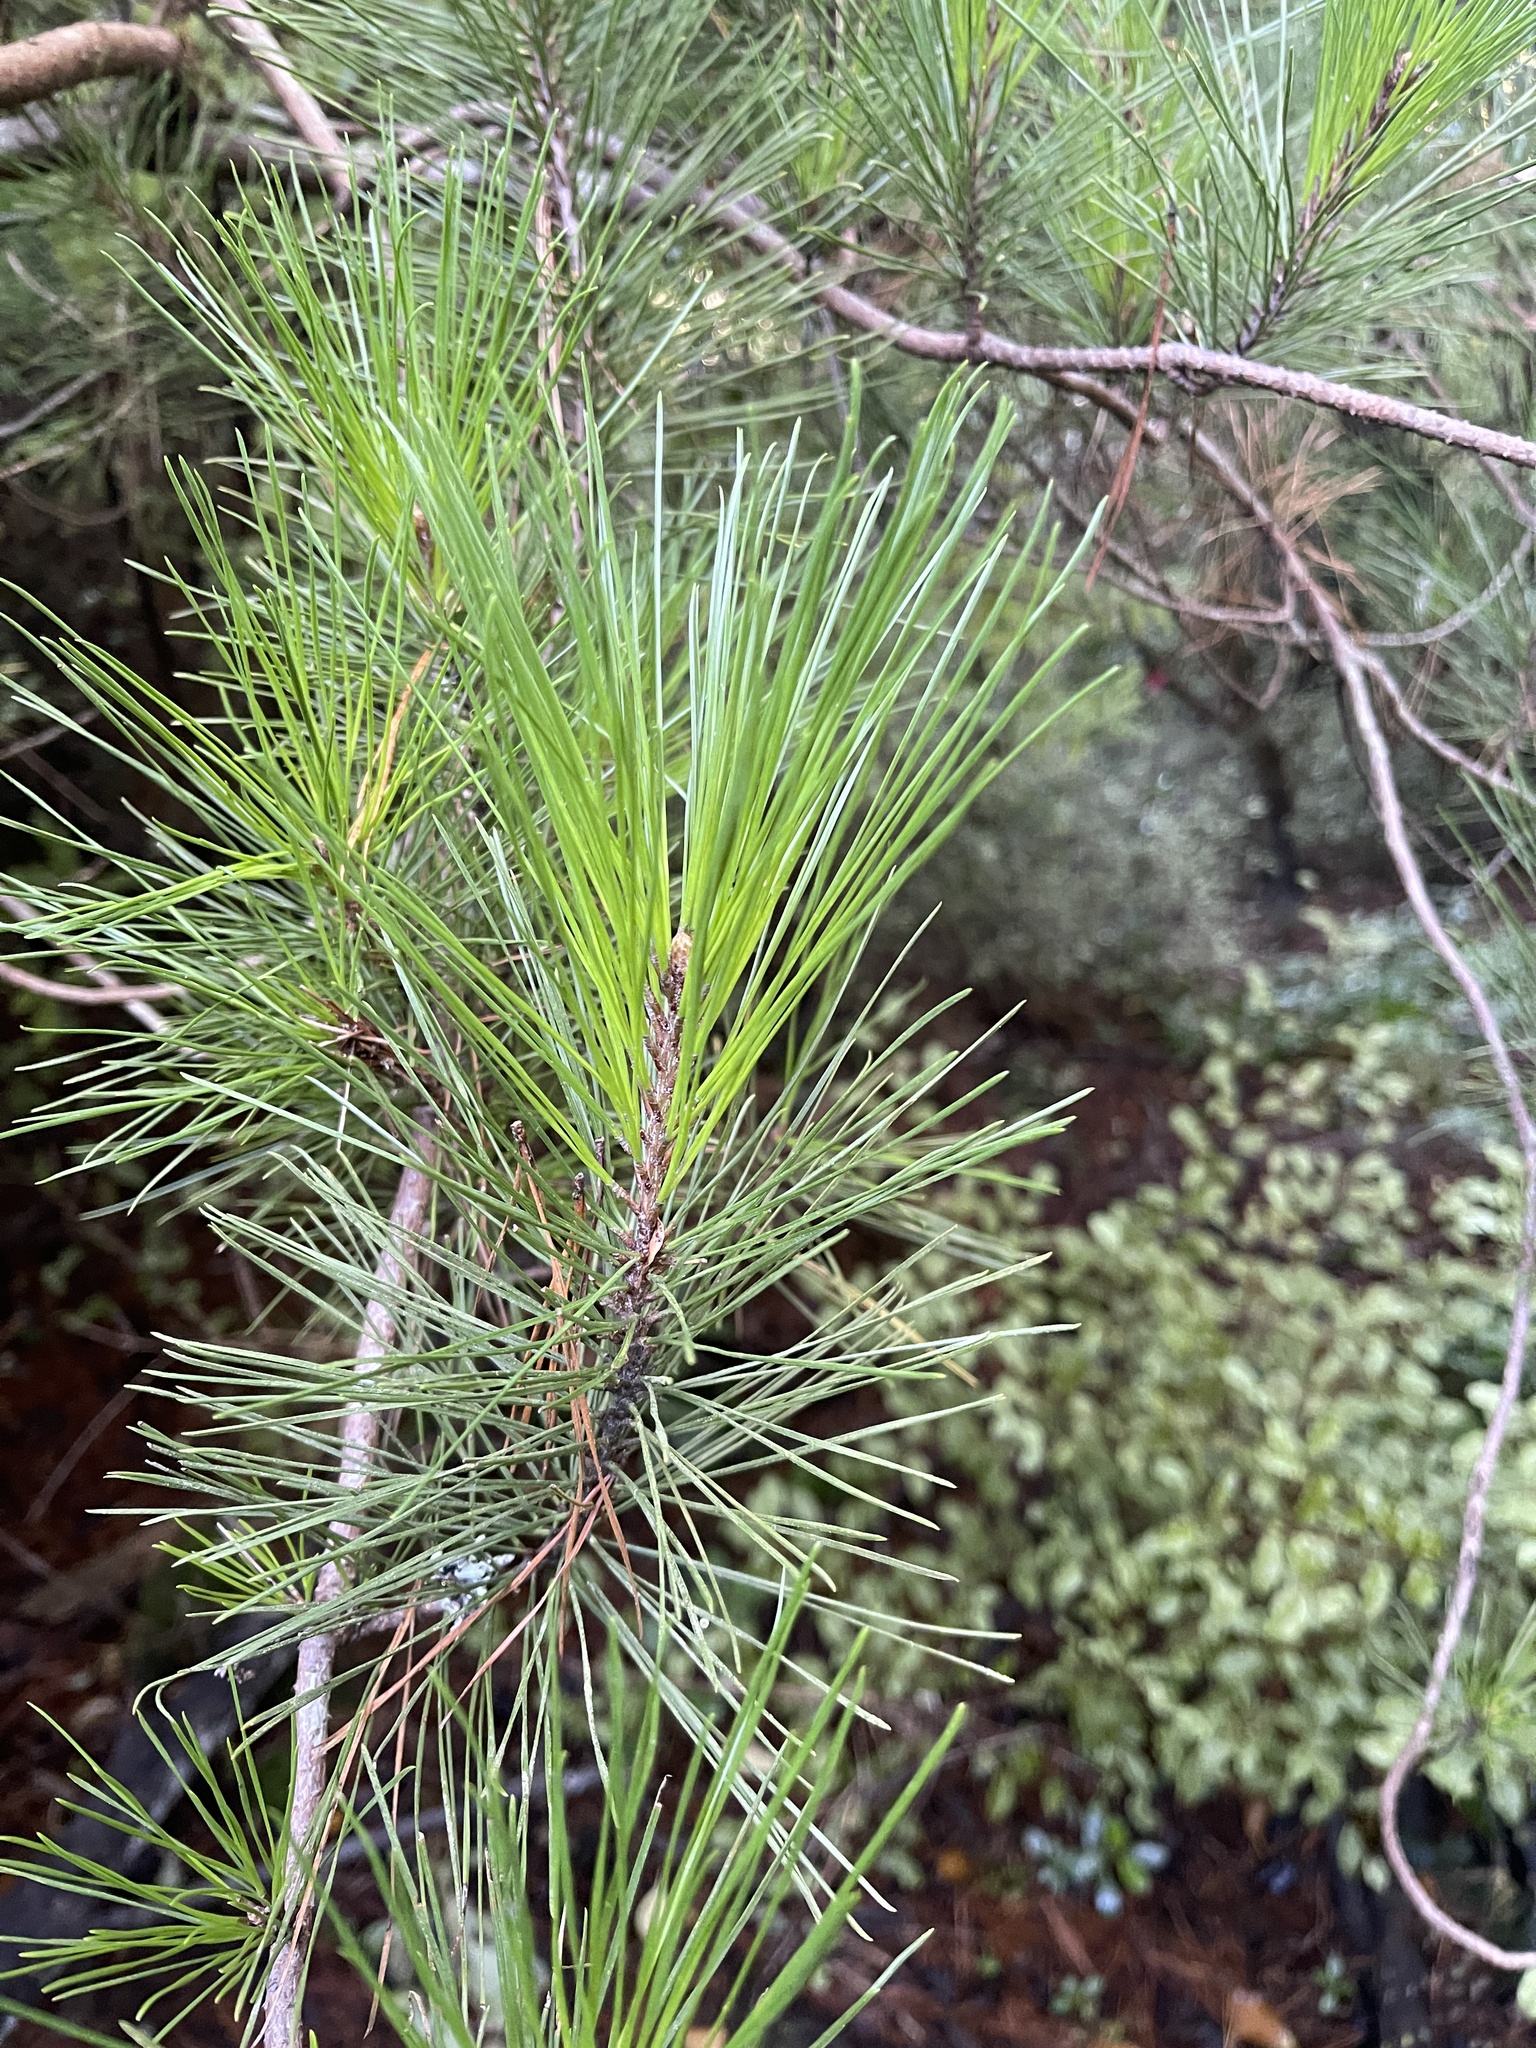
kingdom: Plantae
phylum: Tracheophyta
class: Pinopsida
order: Pinales
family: Pinaceae
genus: Pinus
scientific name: Pinus radiata
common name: Monterey pine
